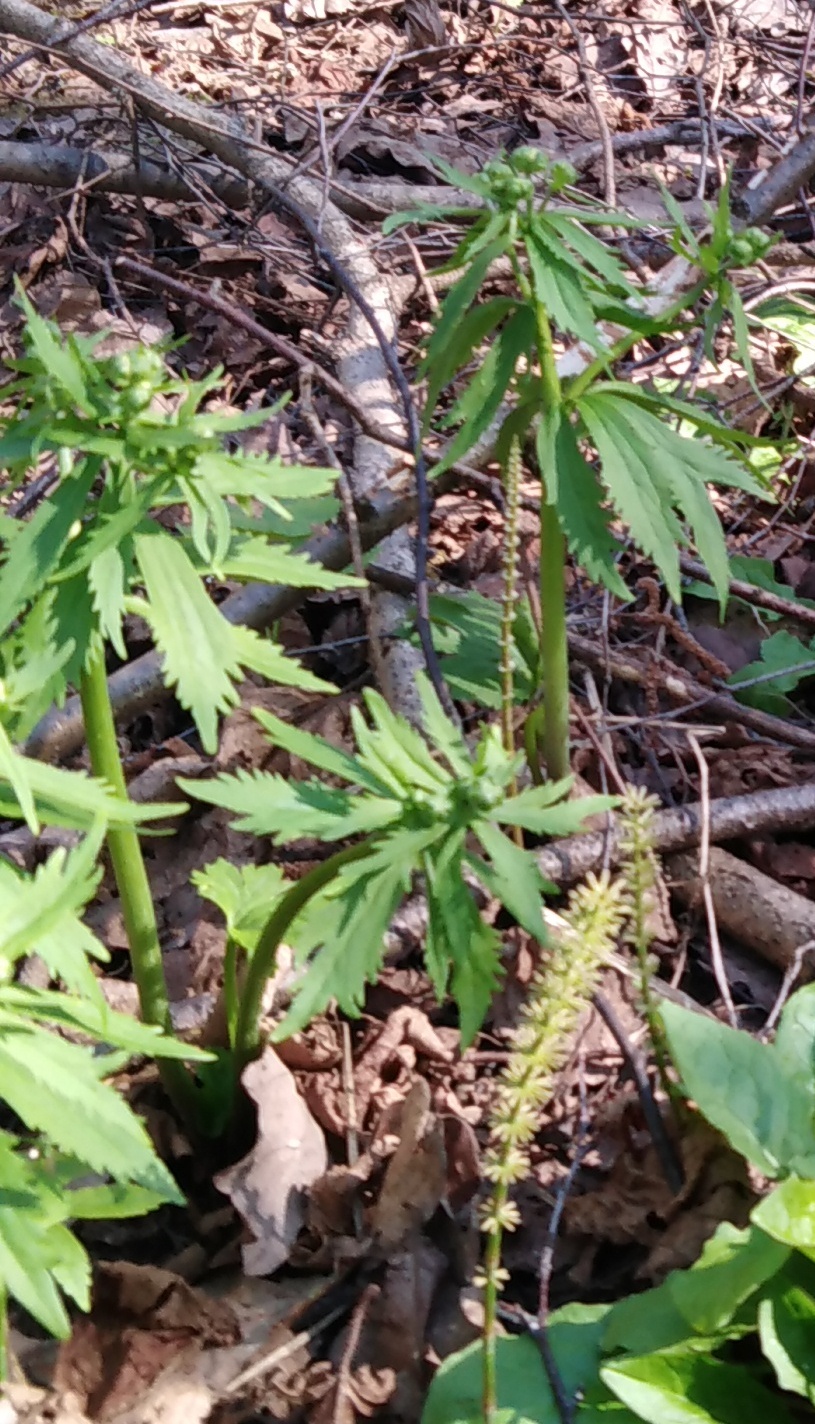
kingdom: Plantae
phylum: Tracheophyta
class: Magnoliopsida
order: Ranunculales
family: Ranunculaceae
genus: Ranunculus
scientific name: Ranunculus cassubicus
